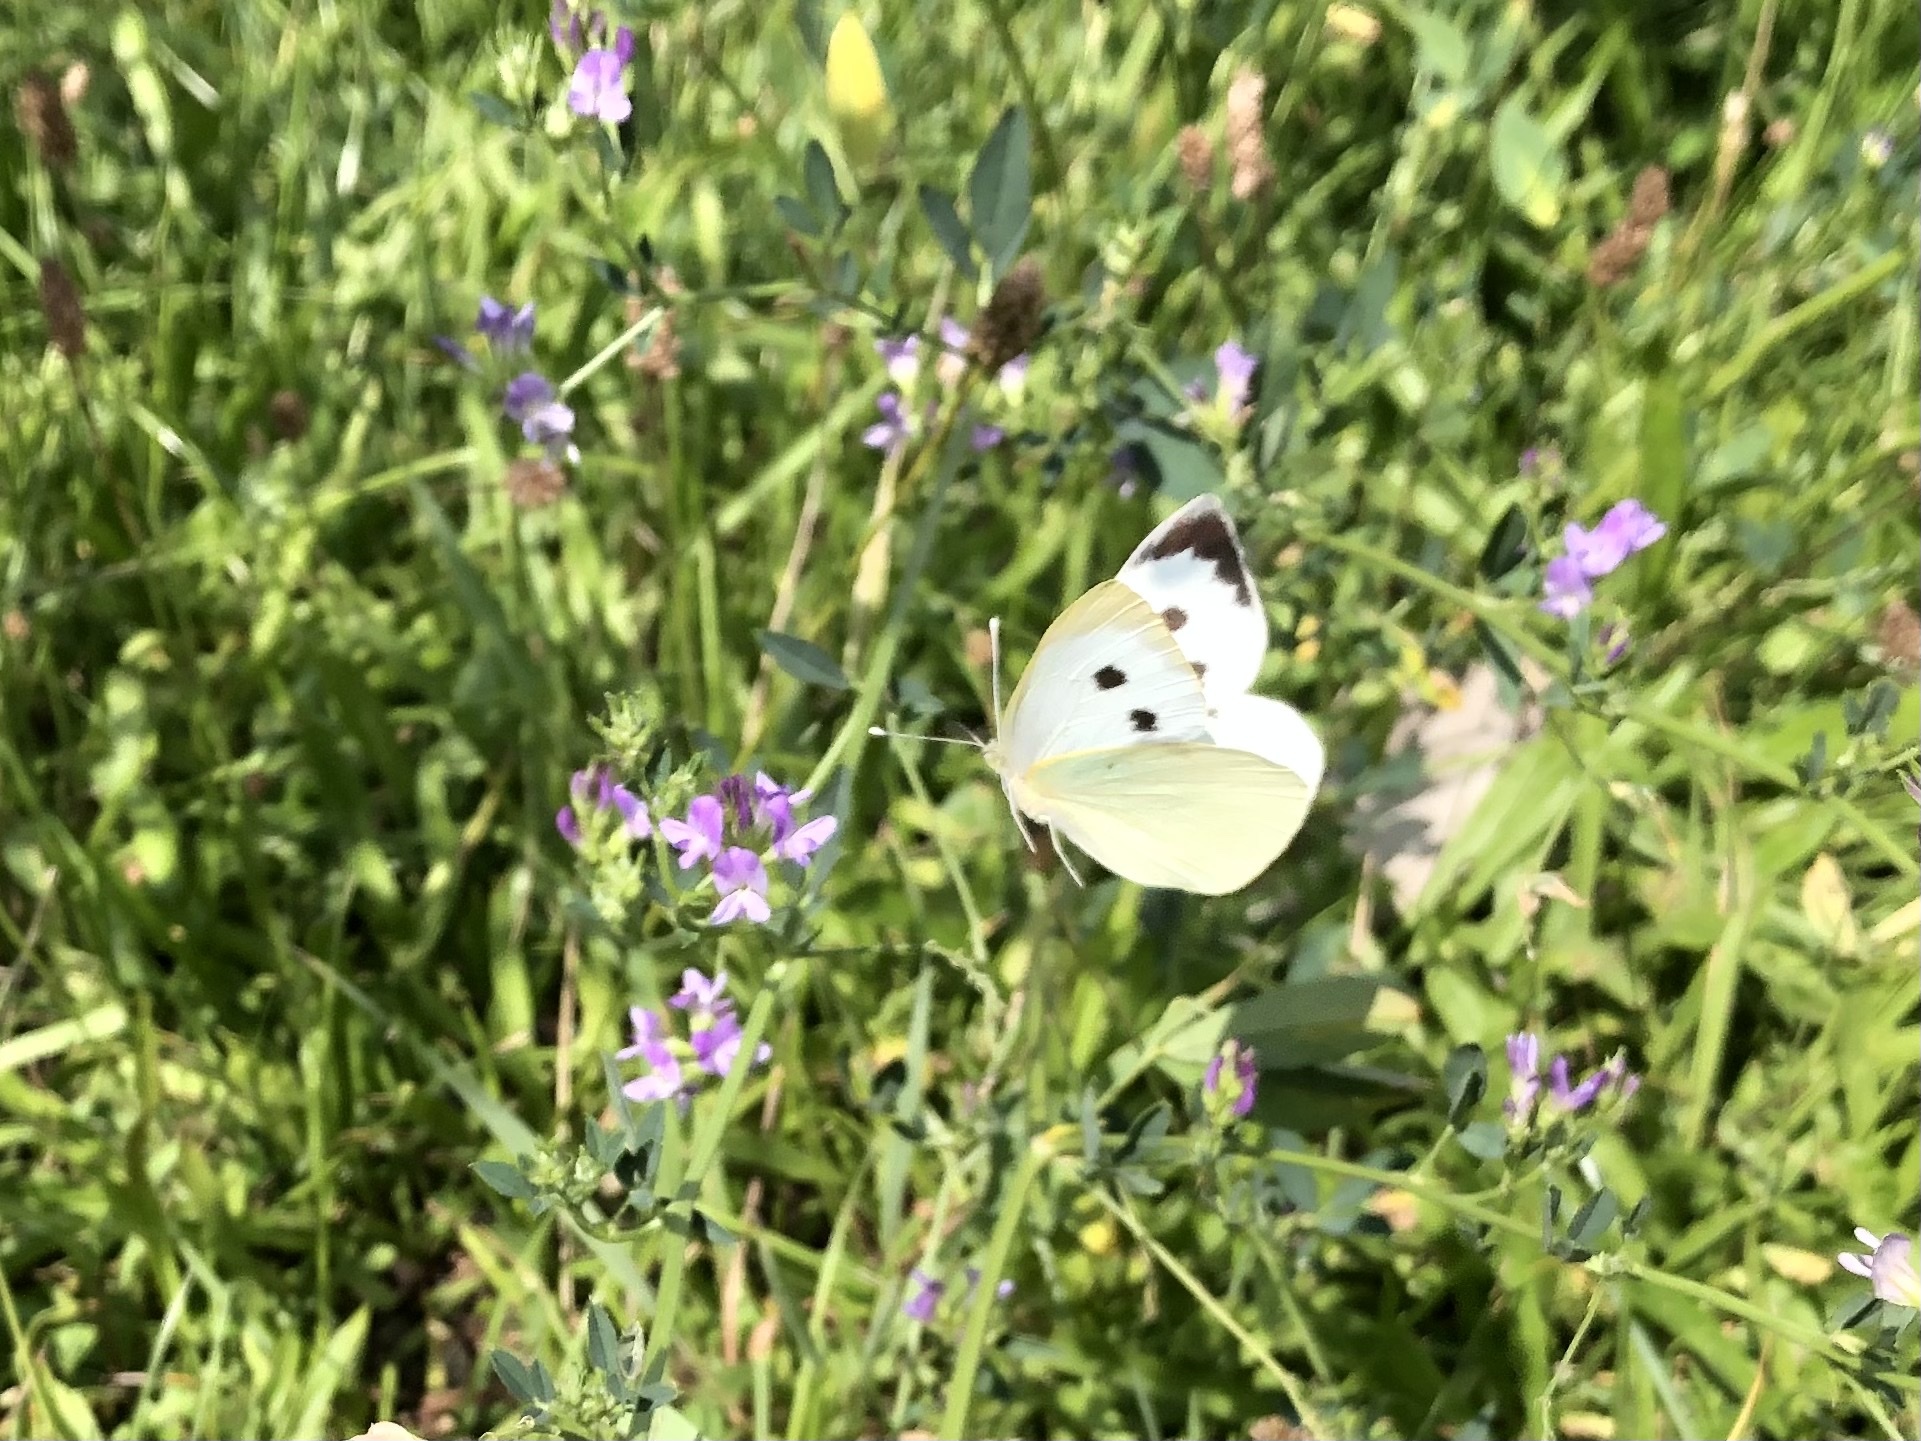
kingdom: Animalia
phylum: Arthropoda
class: Insecta
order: Lepidoptera
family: Pieridae
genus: Pieris
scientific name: Pieris brassicae
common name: Large white
